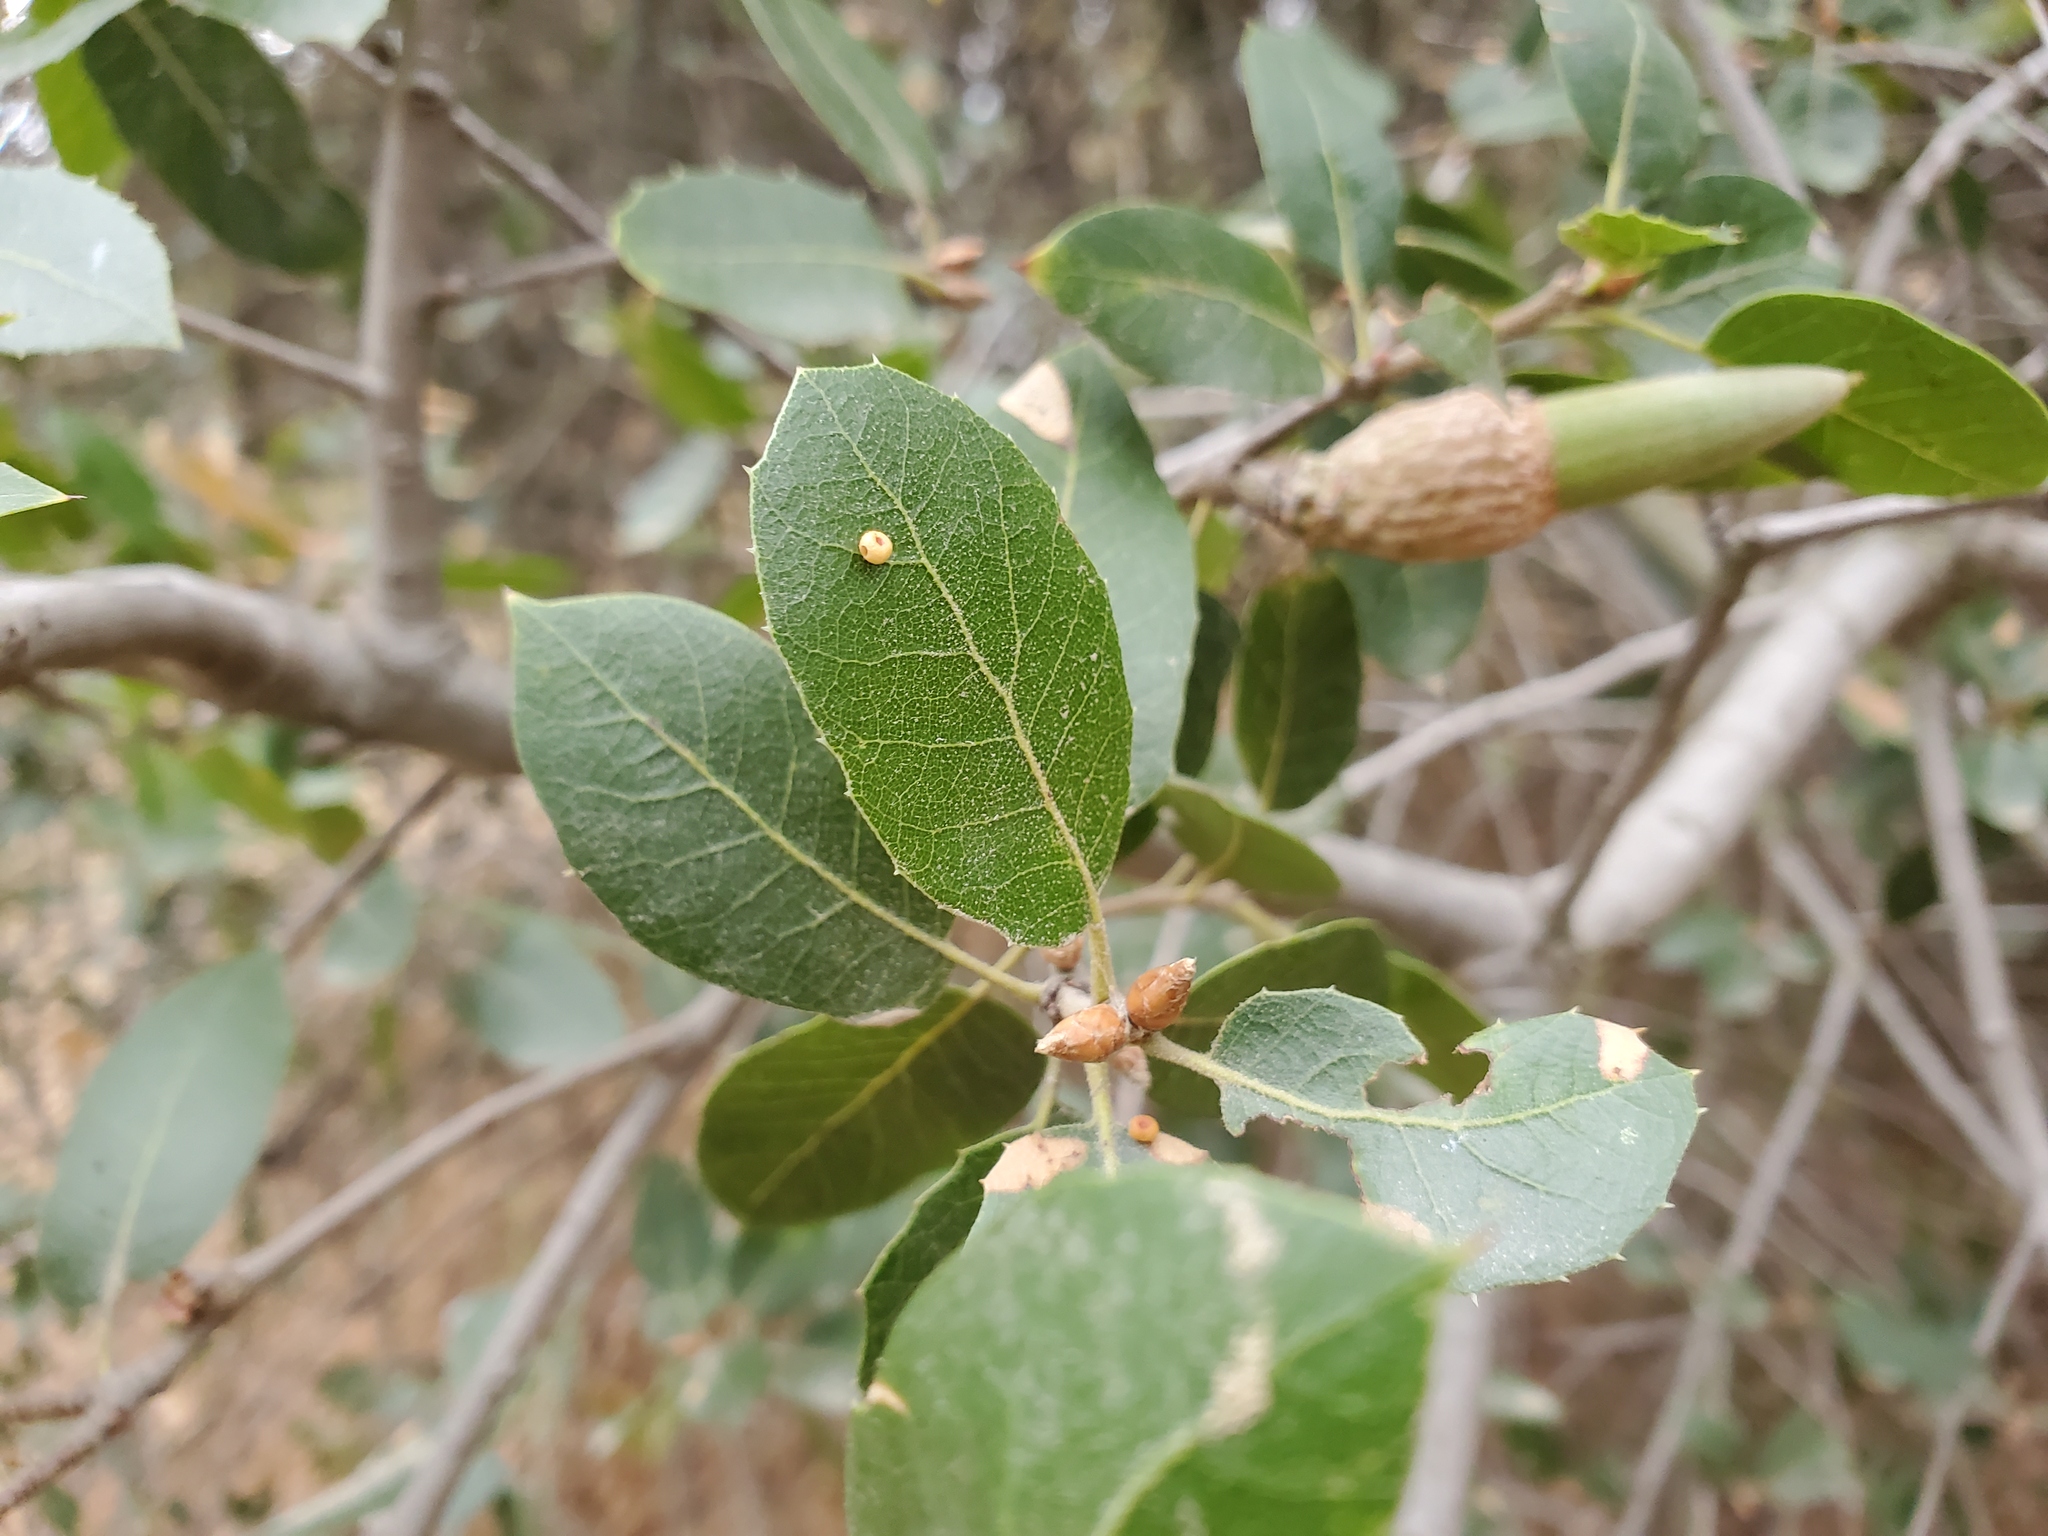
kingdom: Plantae
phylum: Tracheophyta
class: Magnoliopsida
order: Fagales
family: Fagaceae
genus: Quercus
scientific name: Quercus wislizeni
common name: Interior live oak
